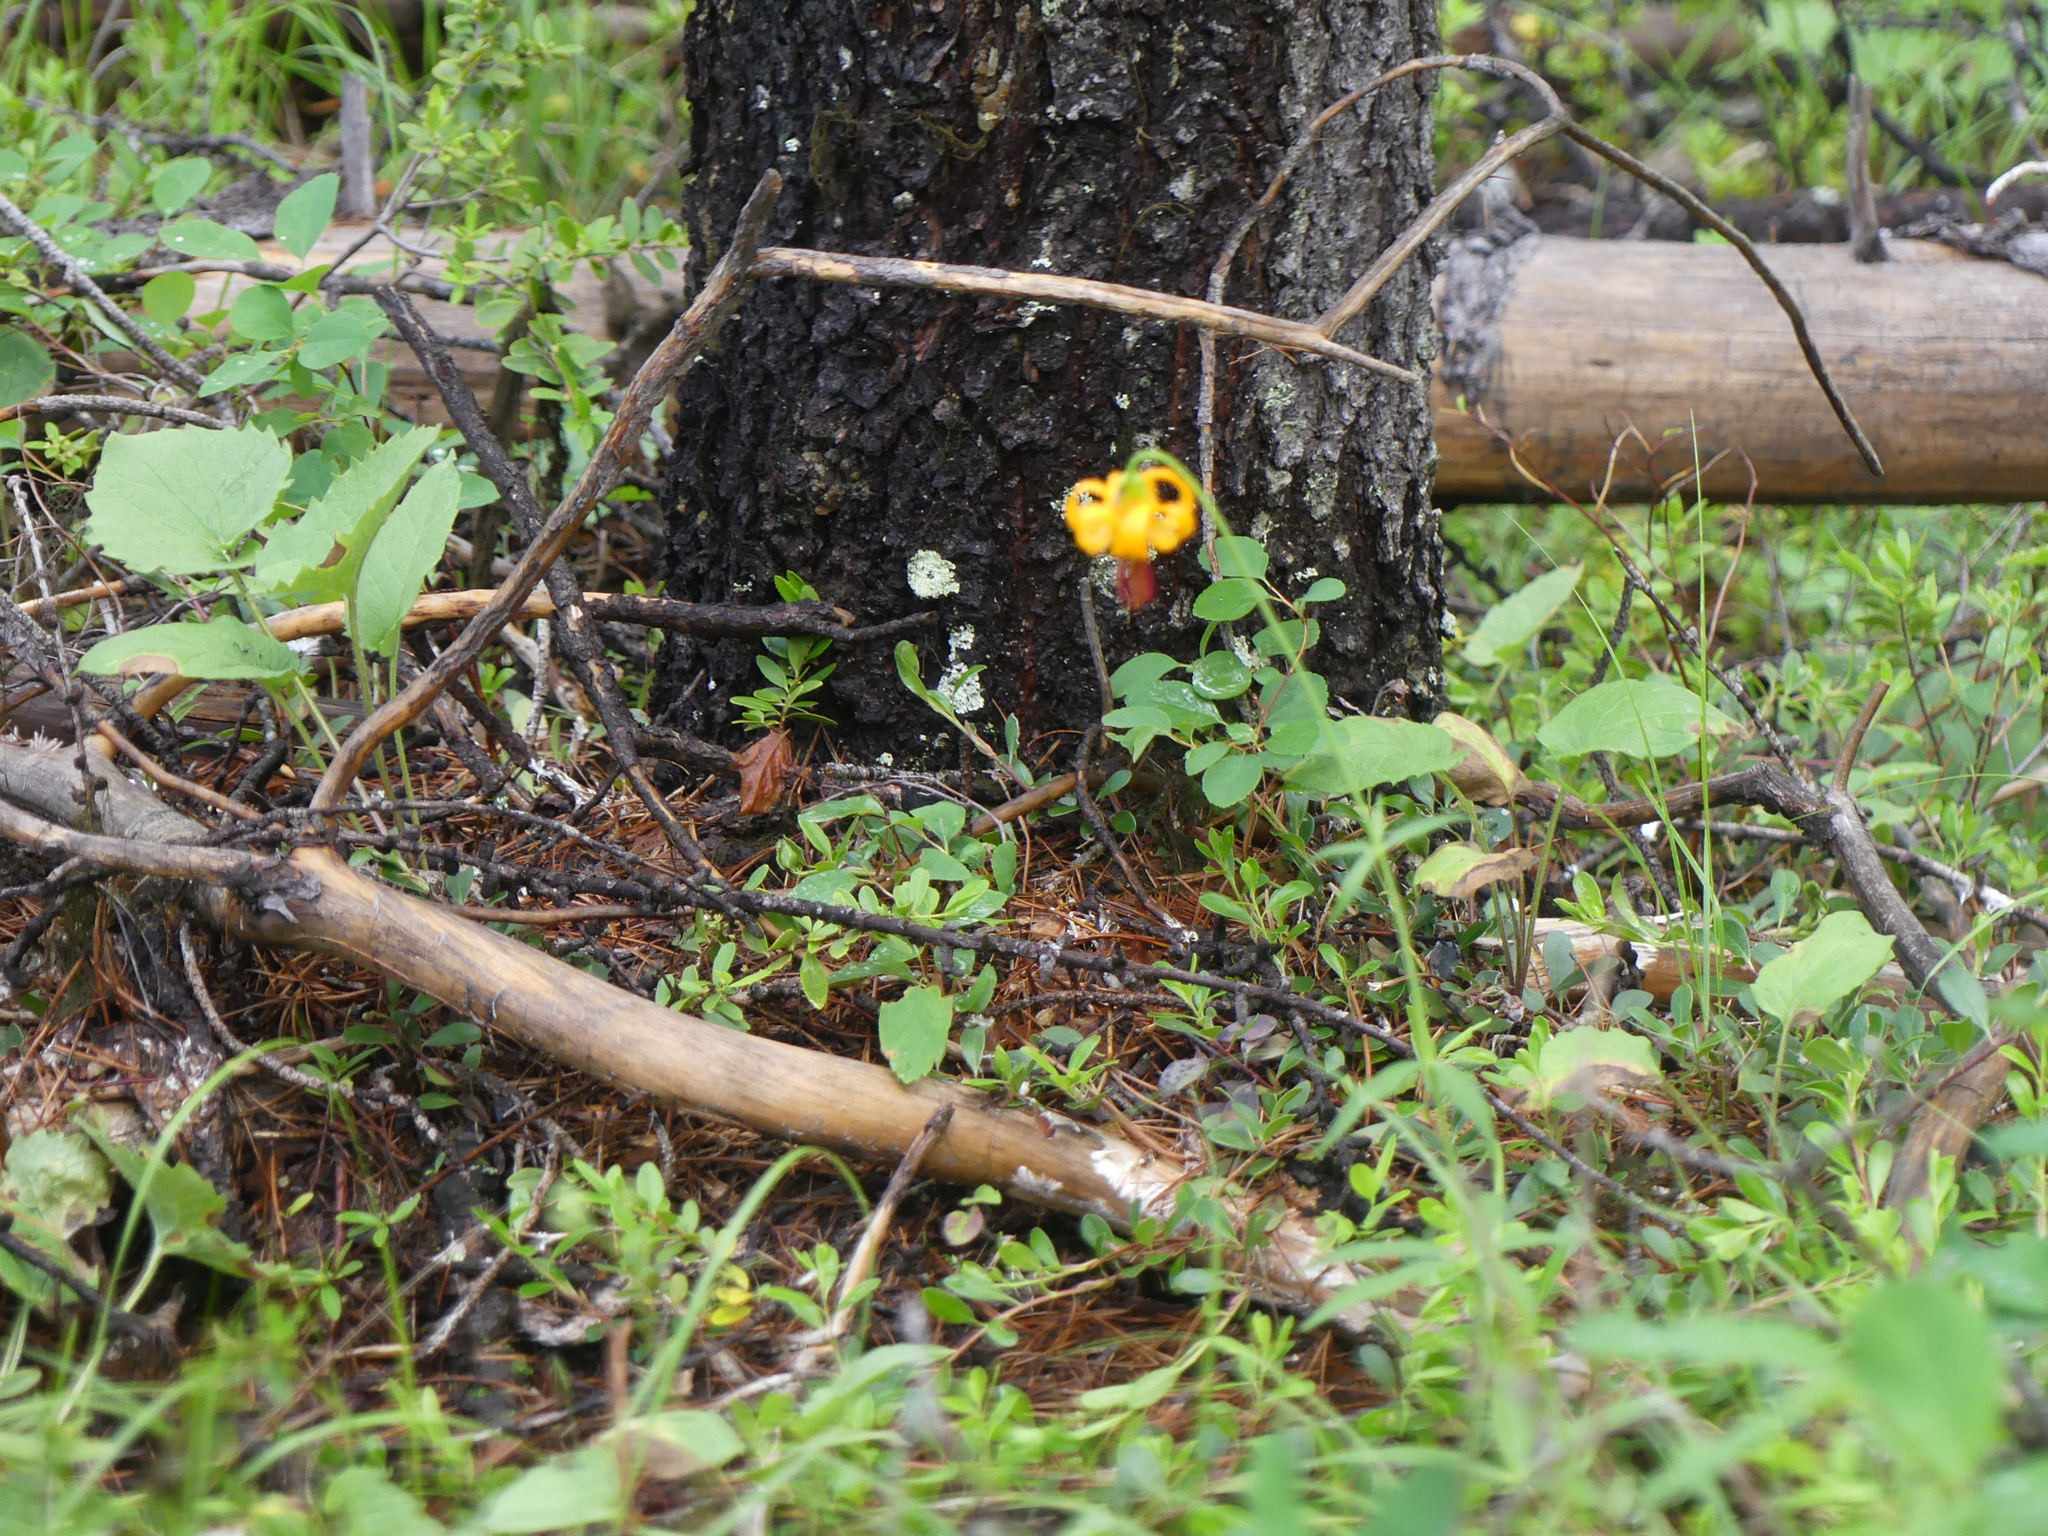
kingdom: Plantae
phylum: Tracheophyta
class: Liliopsida
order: Liliales
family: Liliaceae
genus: Lilium
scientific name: Lilium columbianum
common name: Columbia lily
